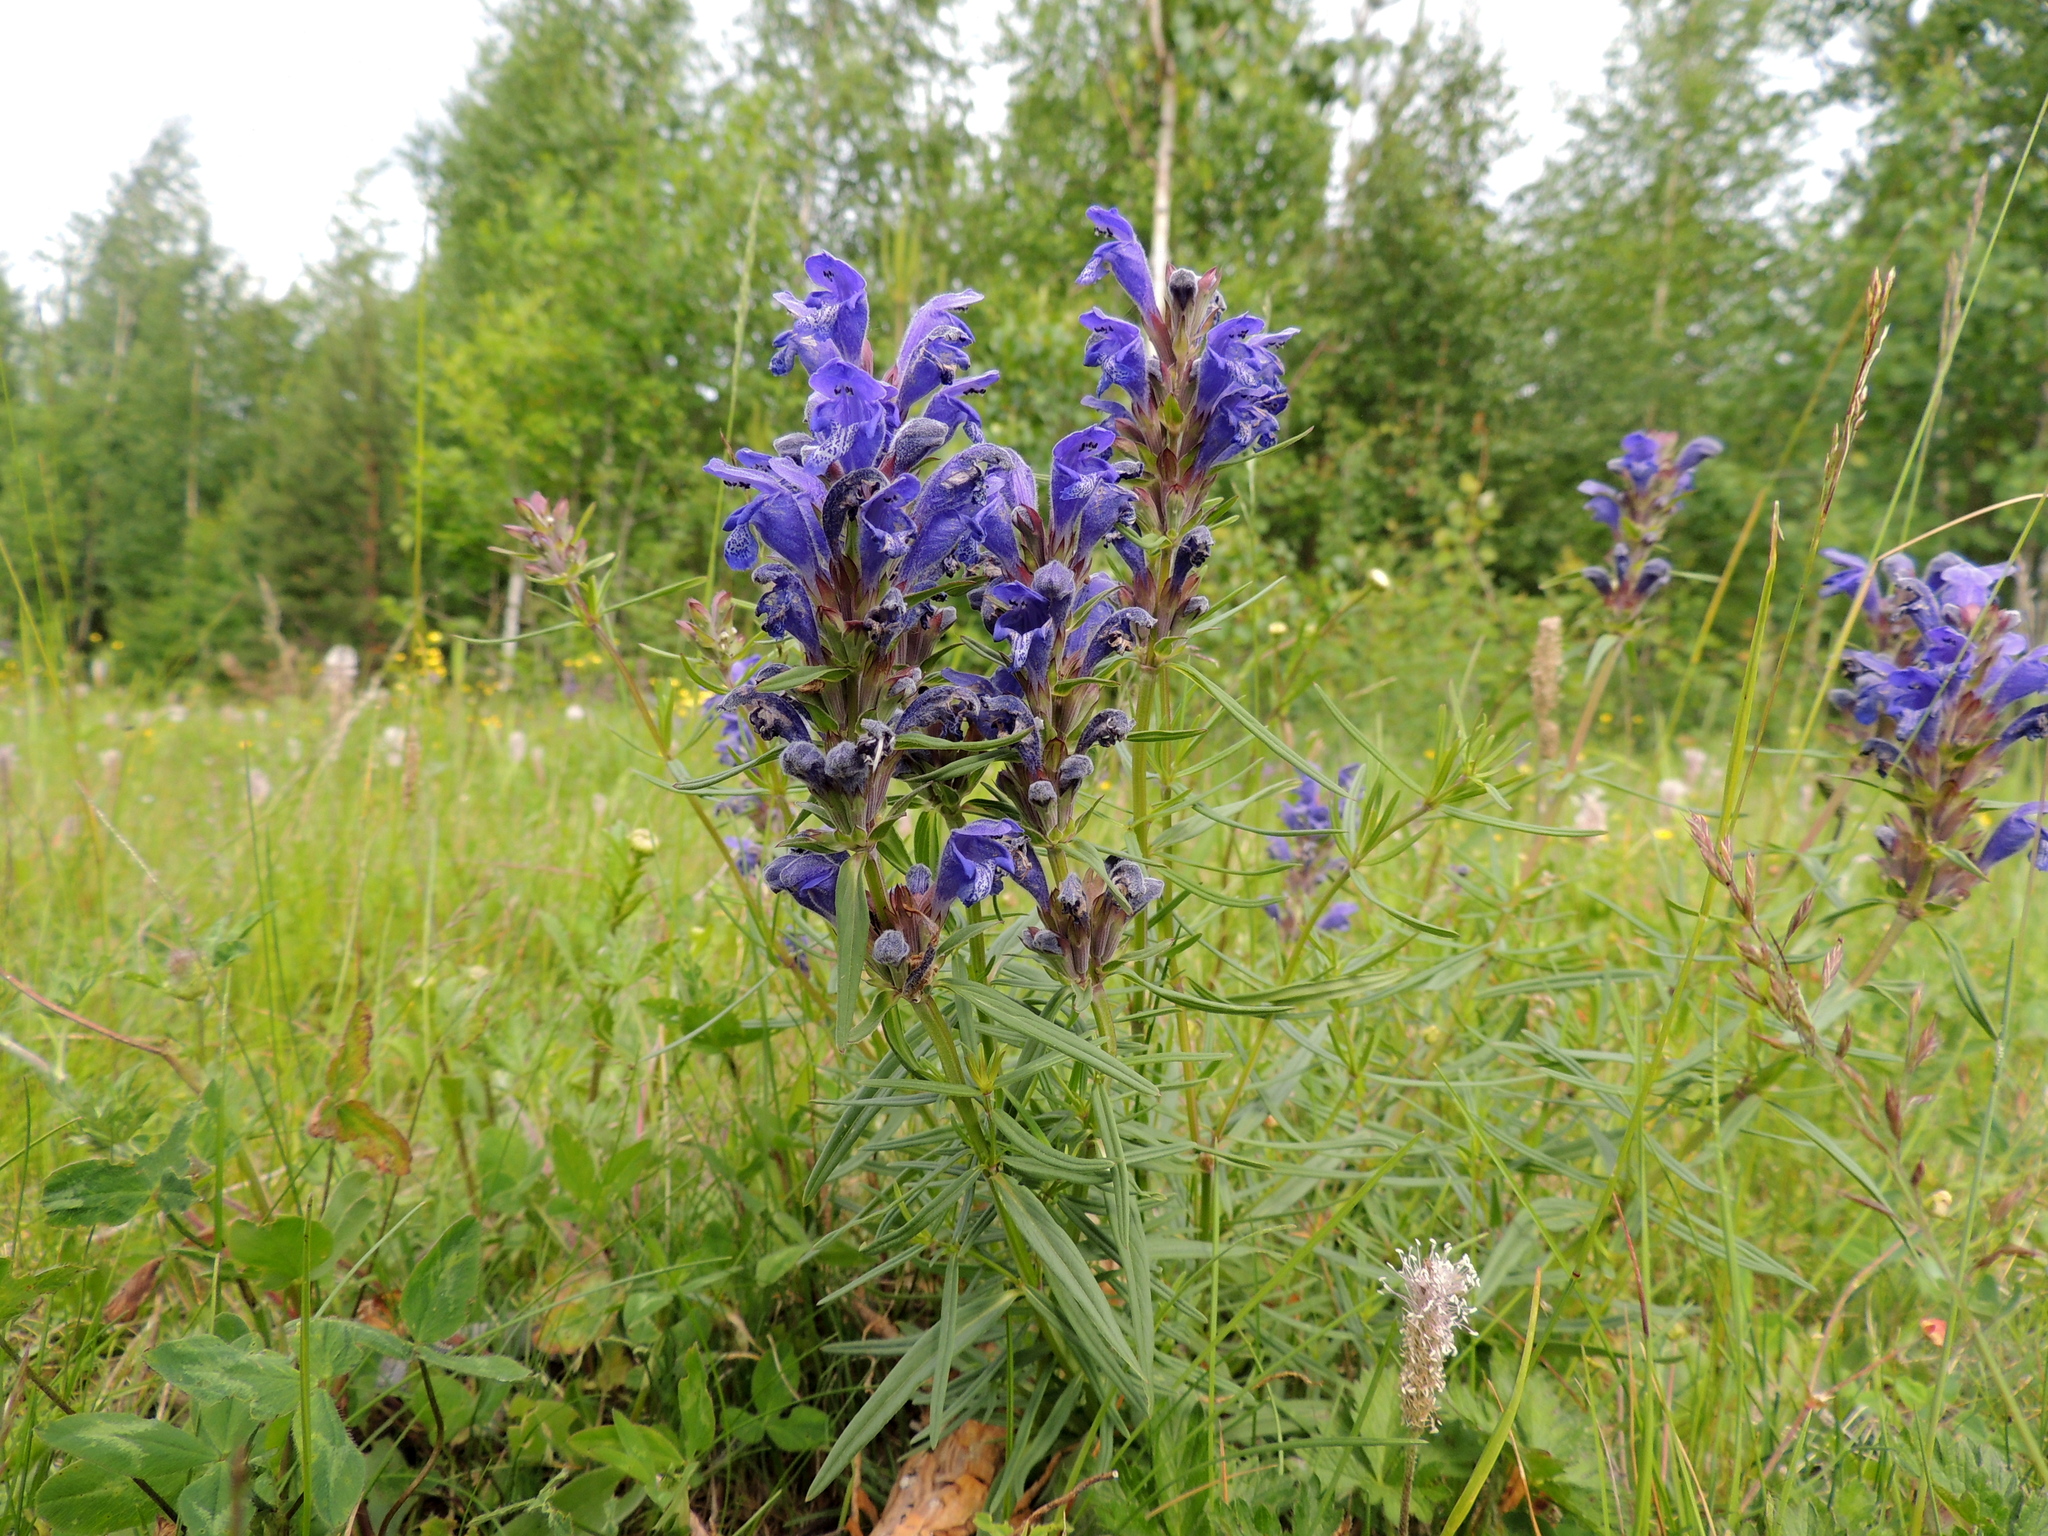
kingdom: Plantae
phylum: Tracheophyta
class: Magnoliopsida
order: Lamiales
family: Lamiaceae
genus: Dracocephalum
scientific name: Dracocephalum ruyschiana
